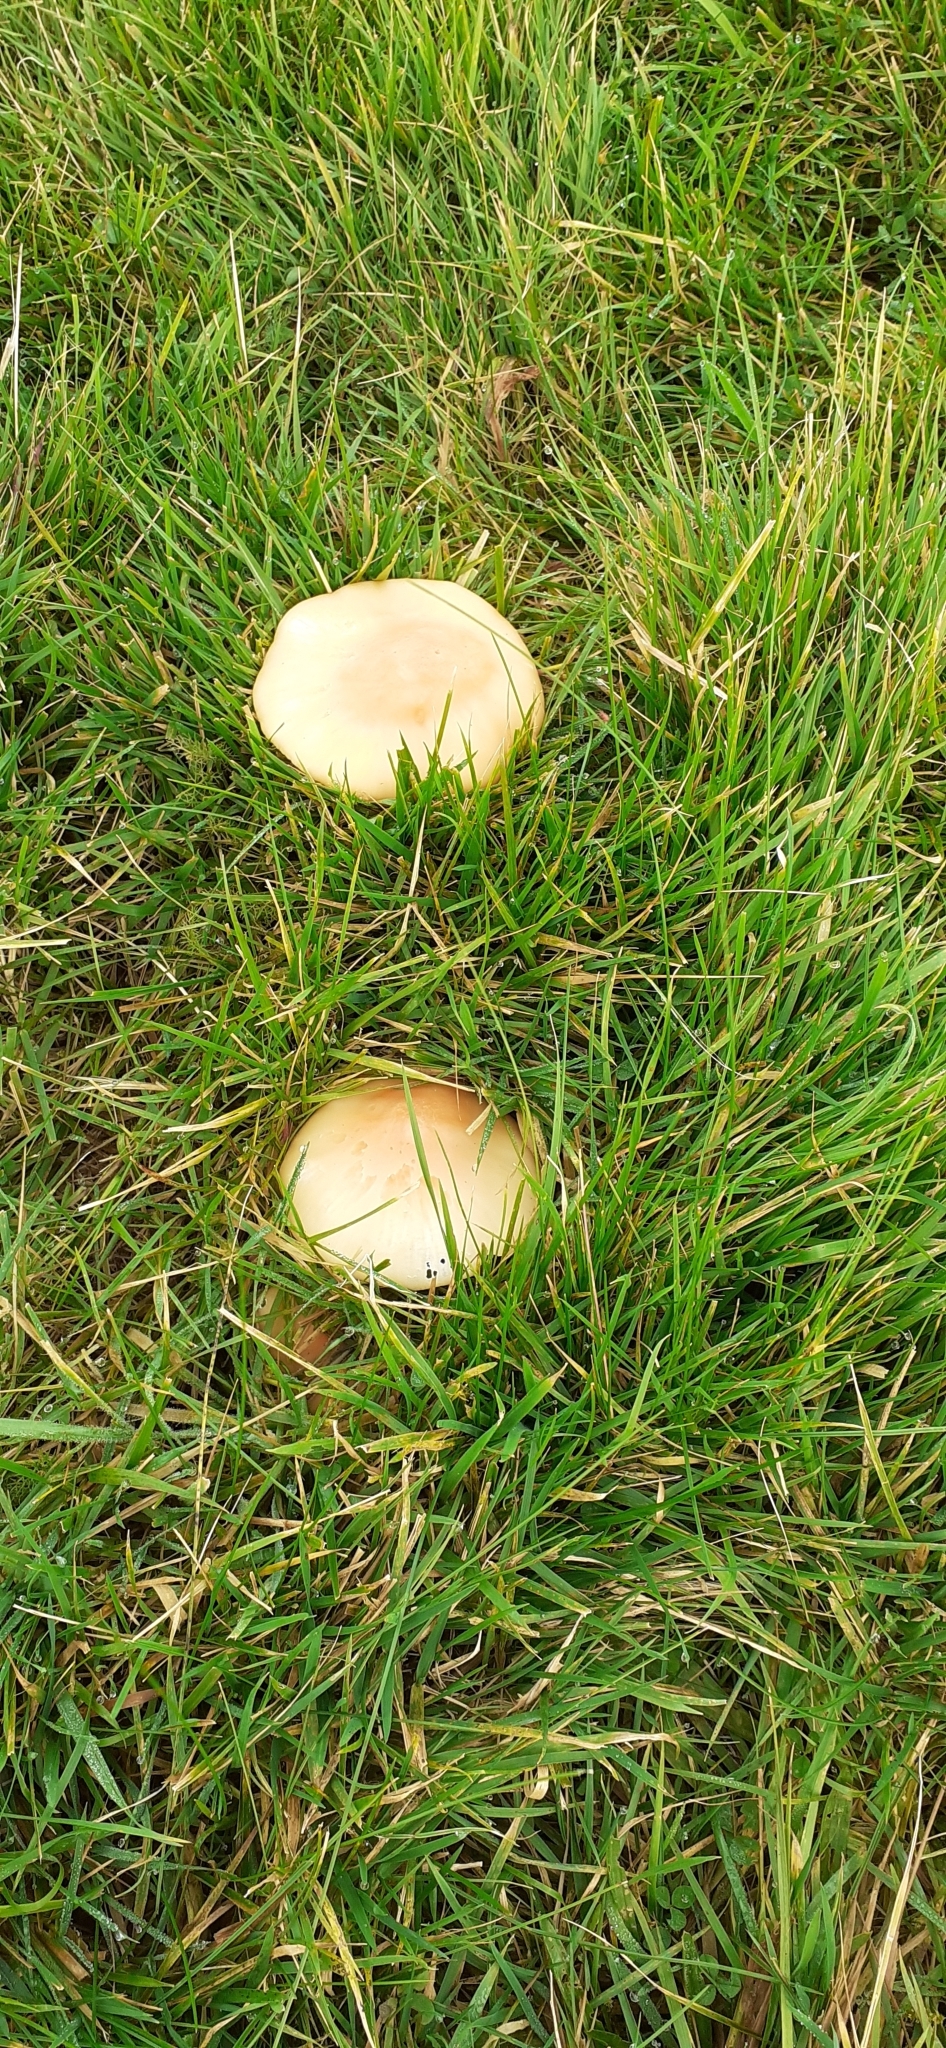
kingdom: Fungi
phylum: Basidiomycota
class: Agaricomycetes
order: Agaricales
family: Hygrophoraceae
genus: Cuphophyllus
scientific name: Cuphophyllus pratensis
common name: Meadow waxcap
